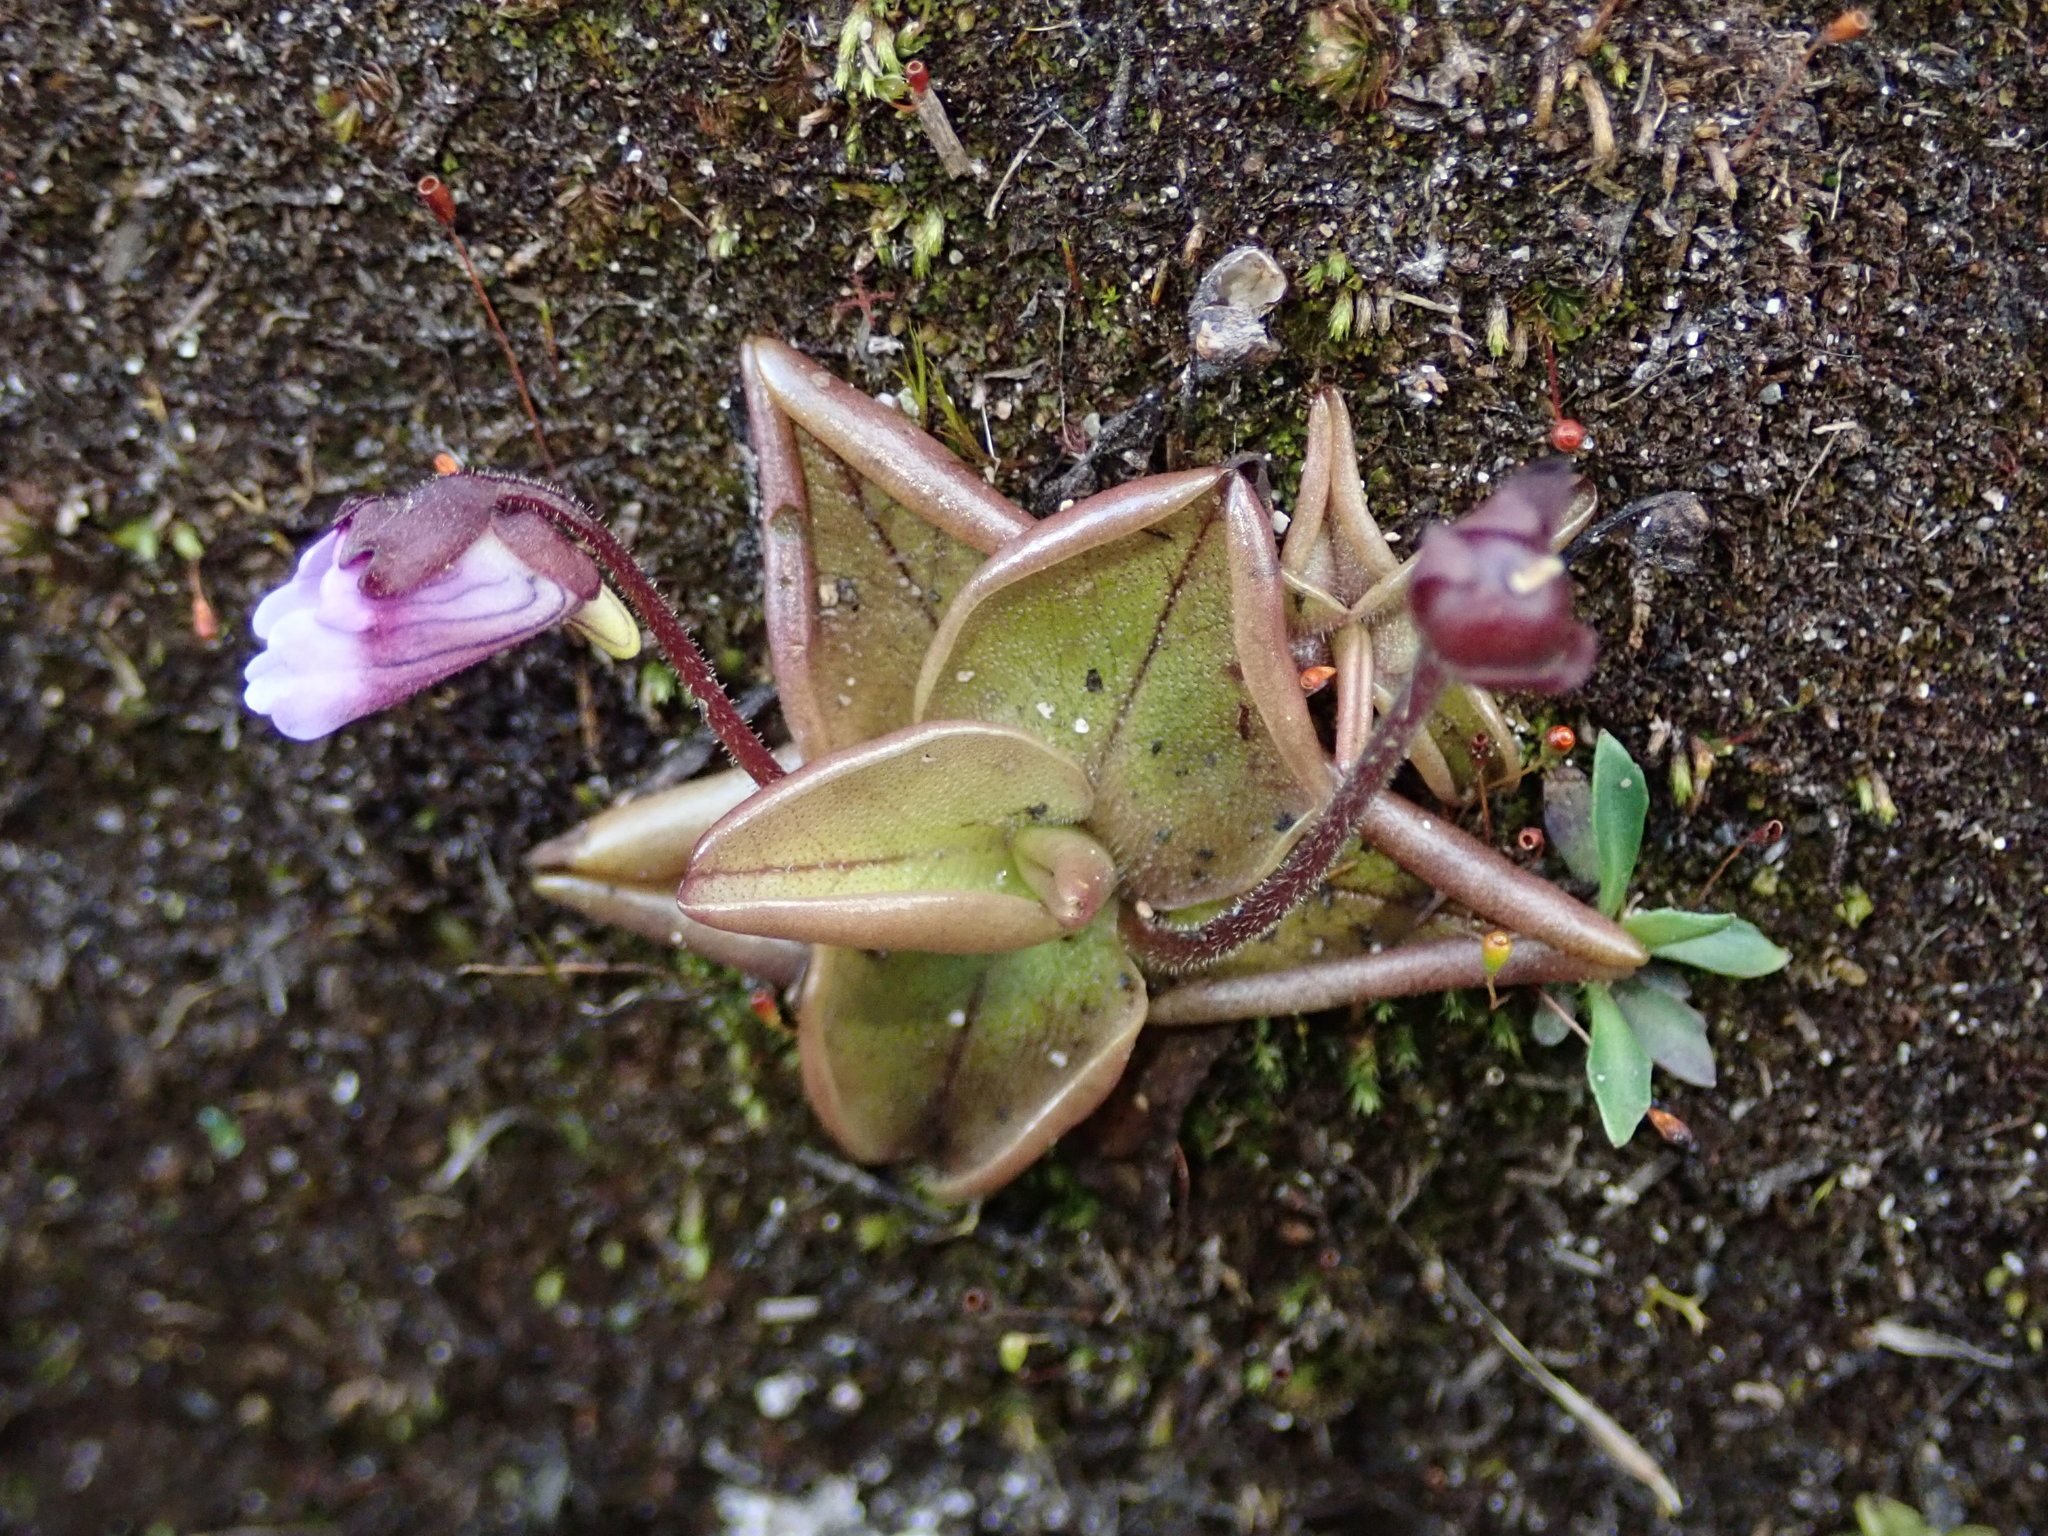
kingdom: Plantae
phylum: Tracheophyta
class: Magnoliopsida
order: Lamiales
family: Lentibulariaceae
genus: Pinguicula
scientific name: Pinguicula calyptrata
